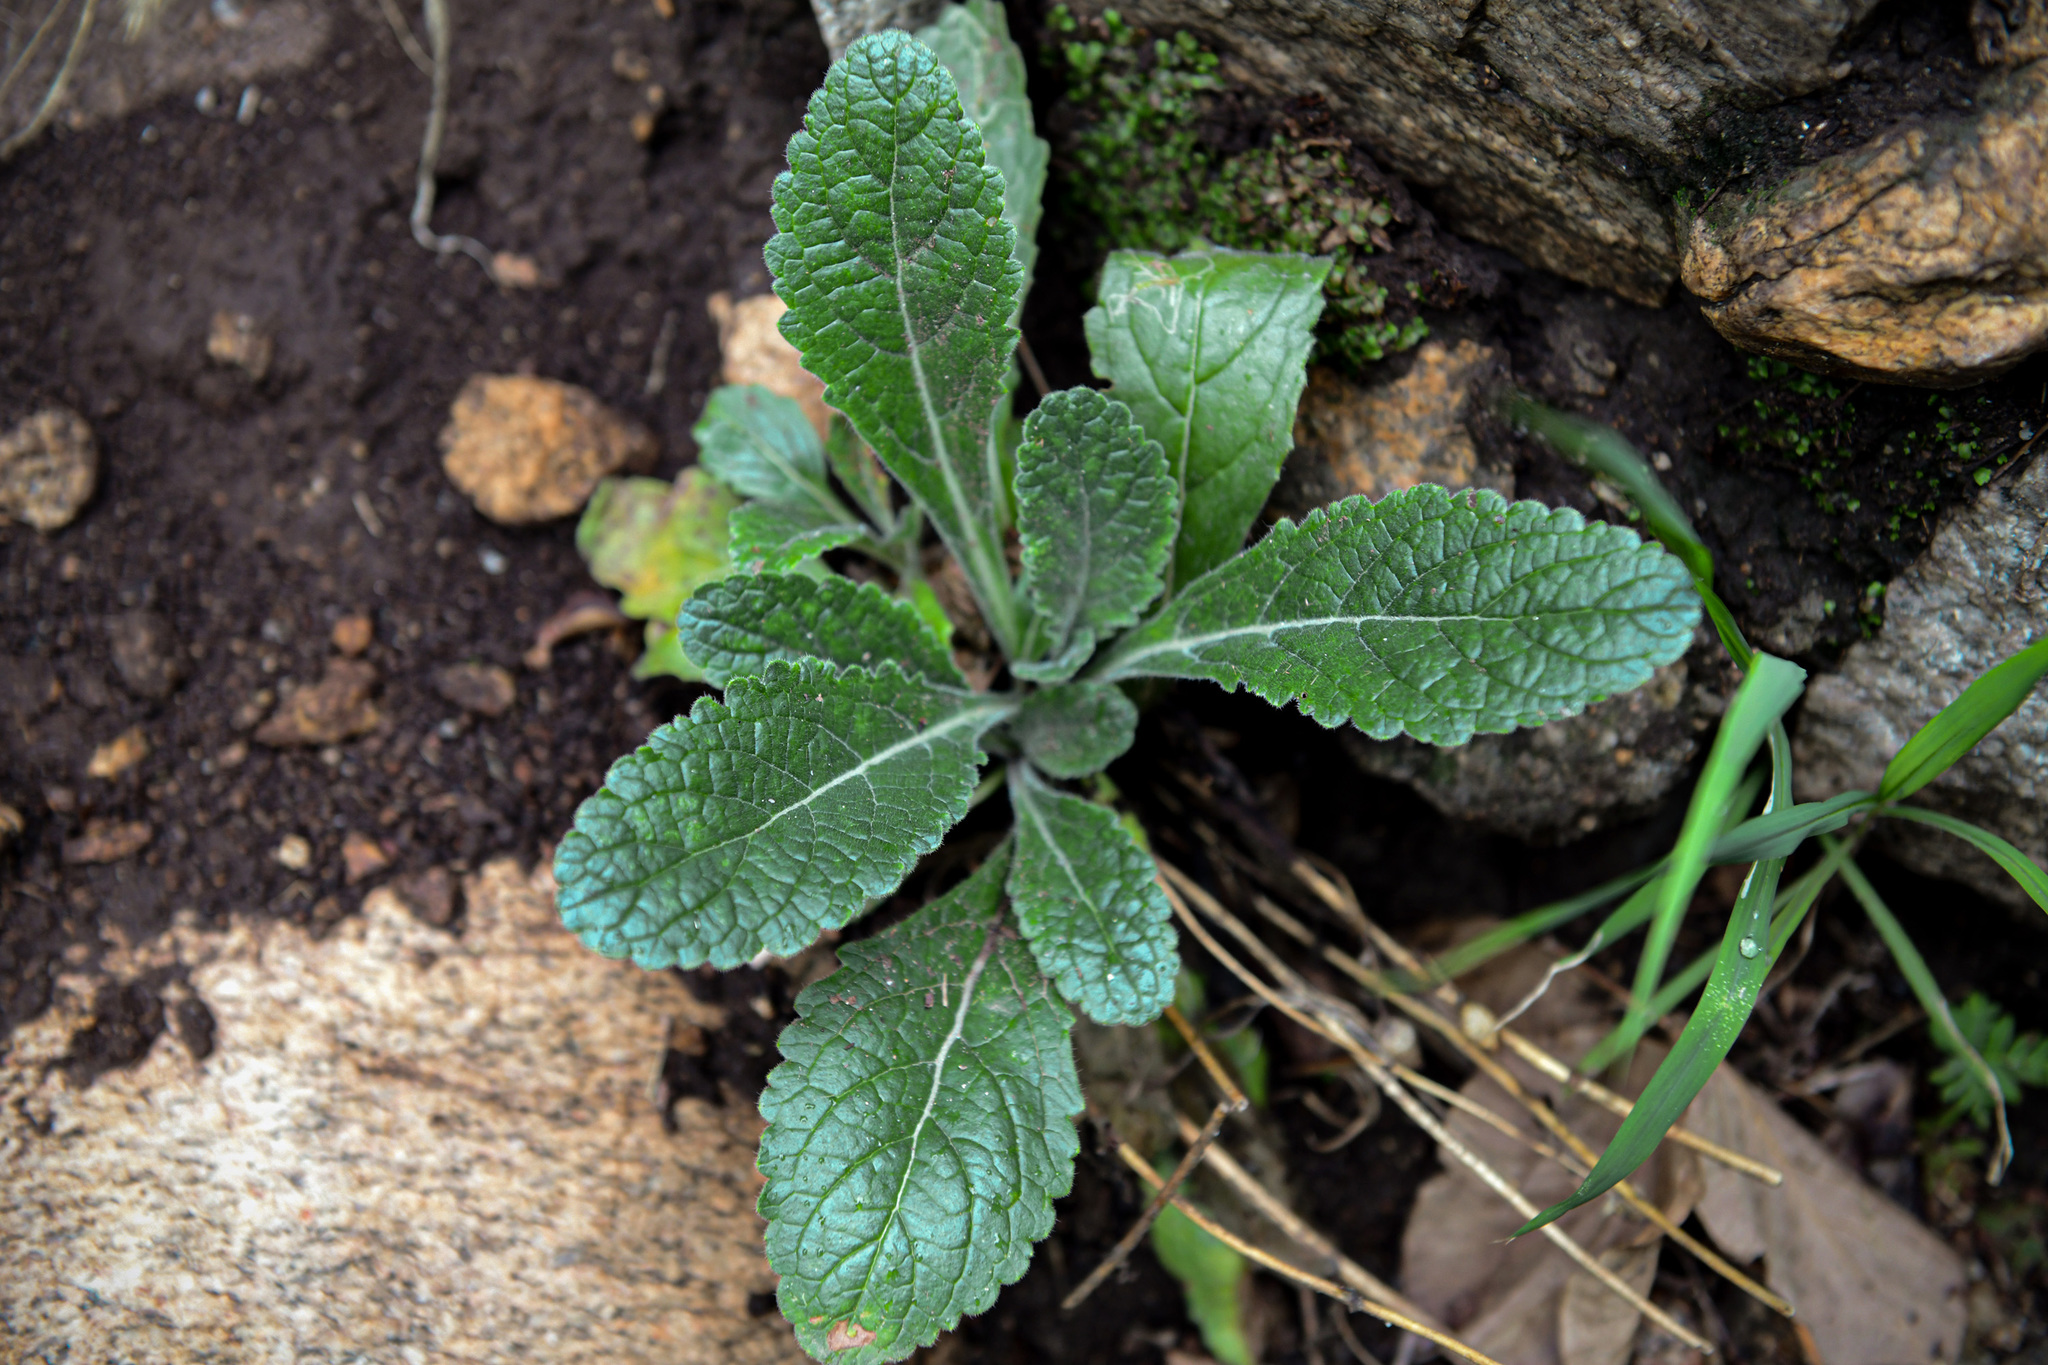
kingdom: Plantae
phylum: Tracheophyta
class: Magnoliopsida
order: Lamiales
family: Rehmanniaceae
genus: Rehmannia
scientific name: Rehmannia glutinosa
